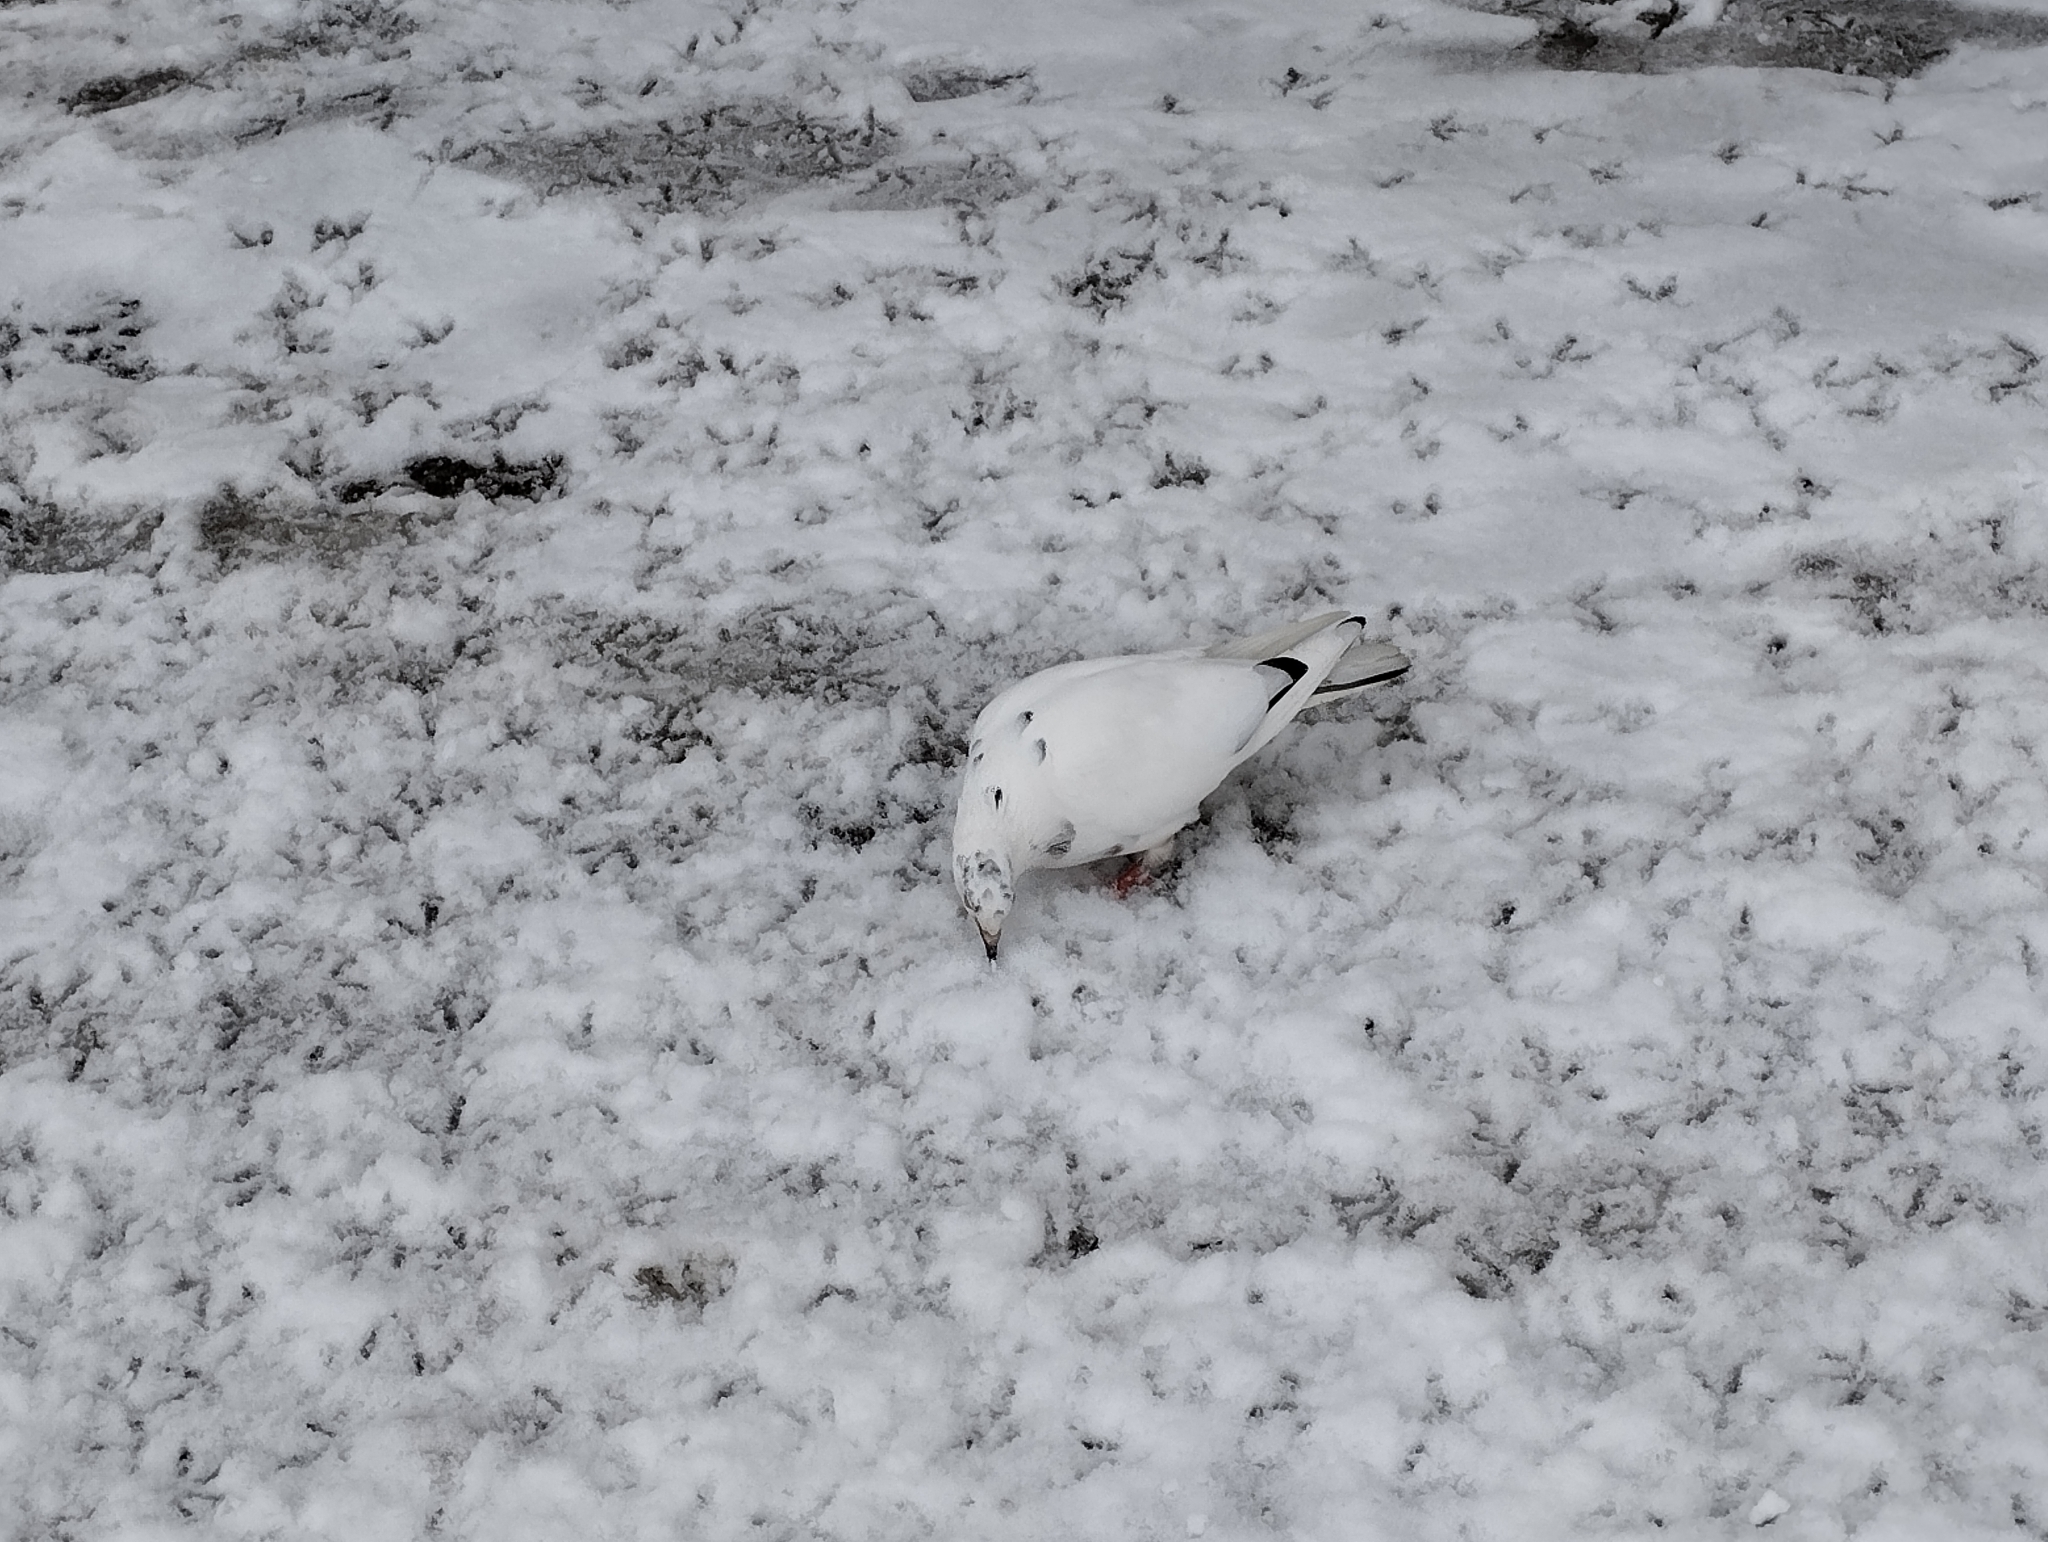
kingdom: Animalia
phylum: Chordata
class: Aves
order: Columbiformes
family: Columbidae
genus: Columba
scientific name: Columba livia
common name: Rock pigeon
